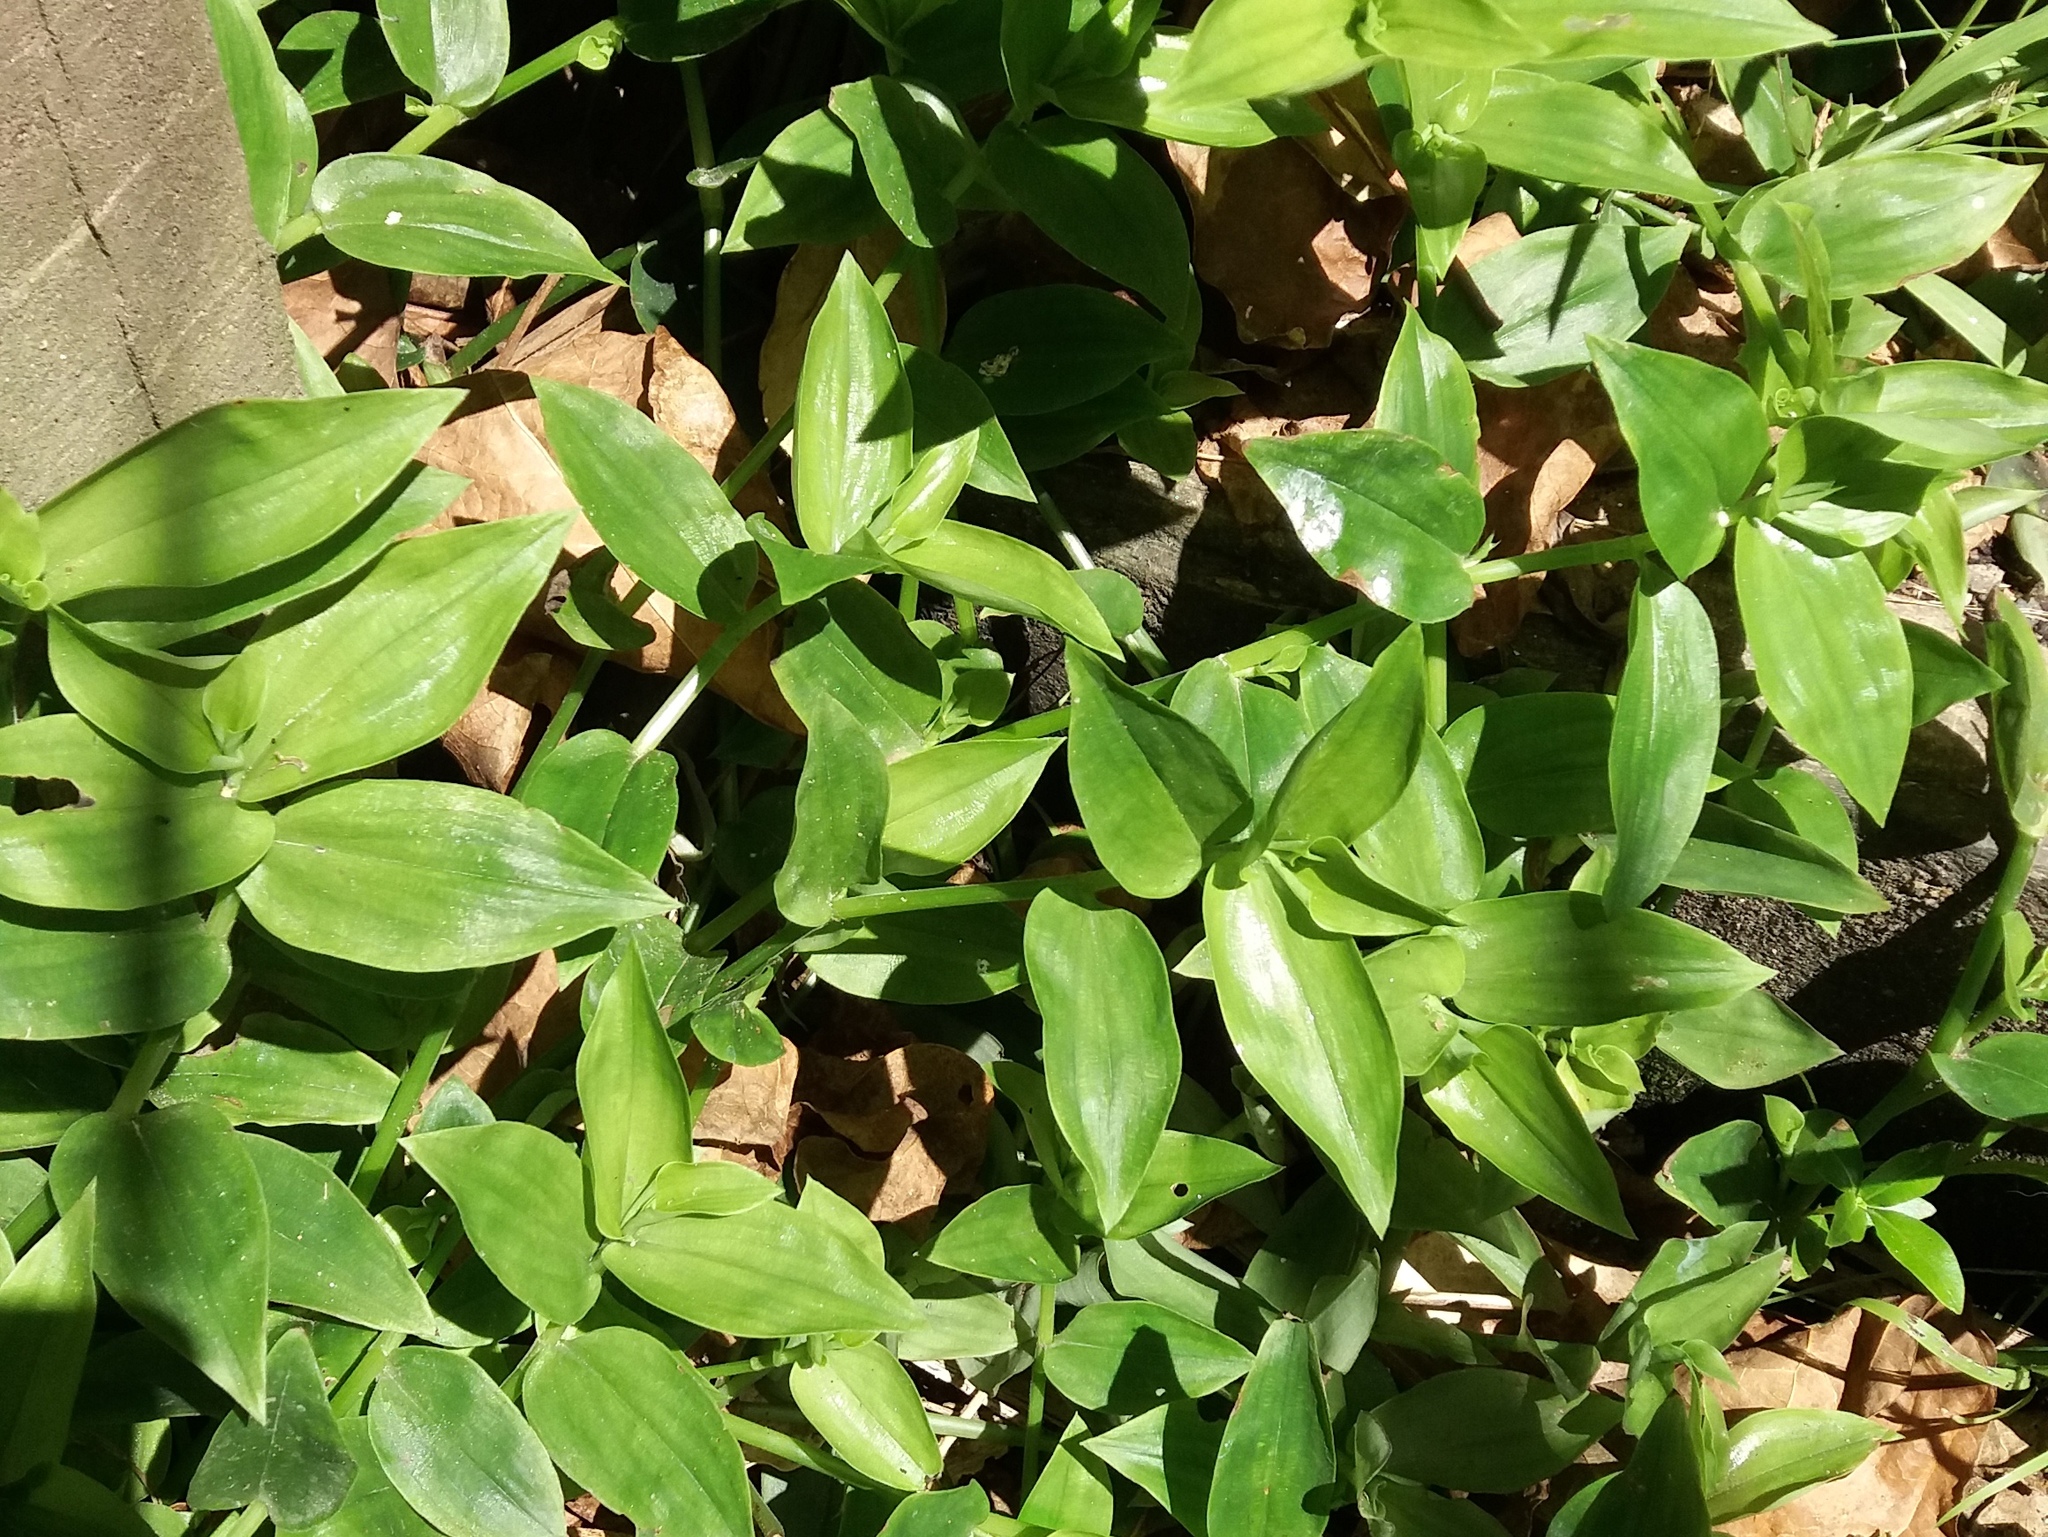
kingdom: Plantae
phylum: Tracheophyta
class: Liliopsida
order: Commelinales
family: Commelinaceae
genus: Tradescantia
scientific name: Tradescantia fluminensis
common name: Wandering-jew
